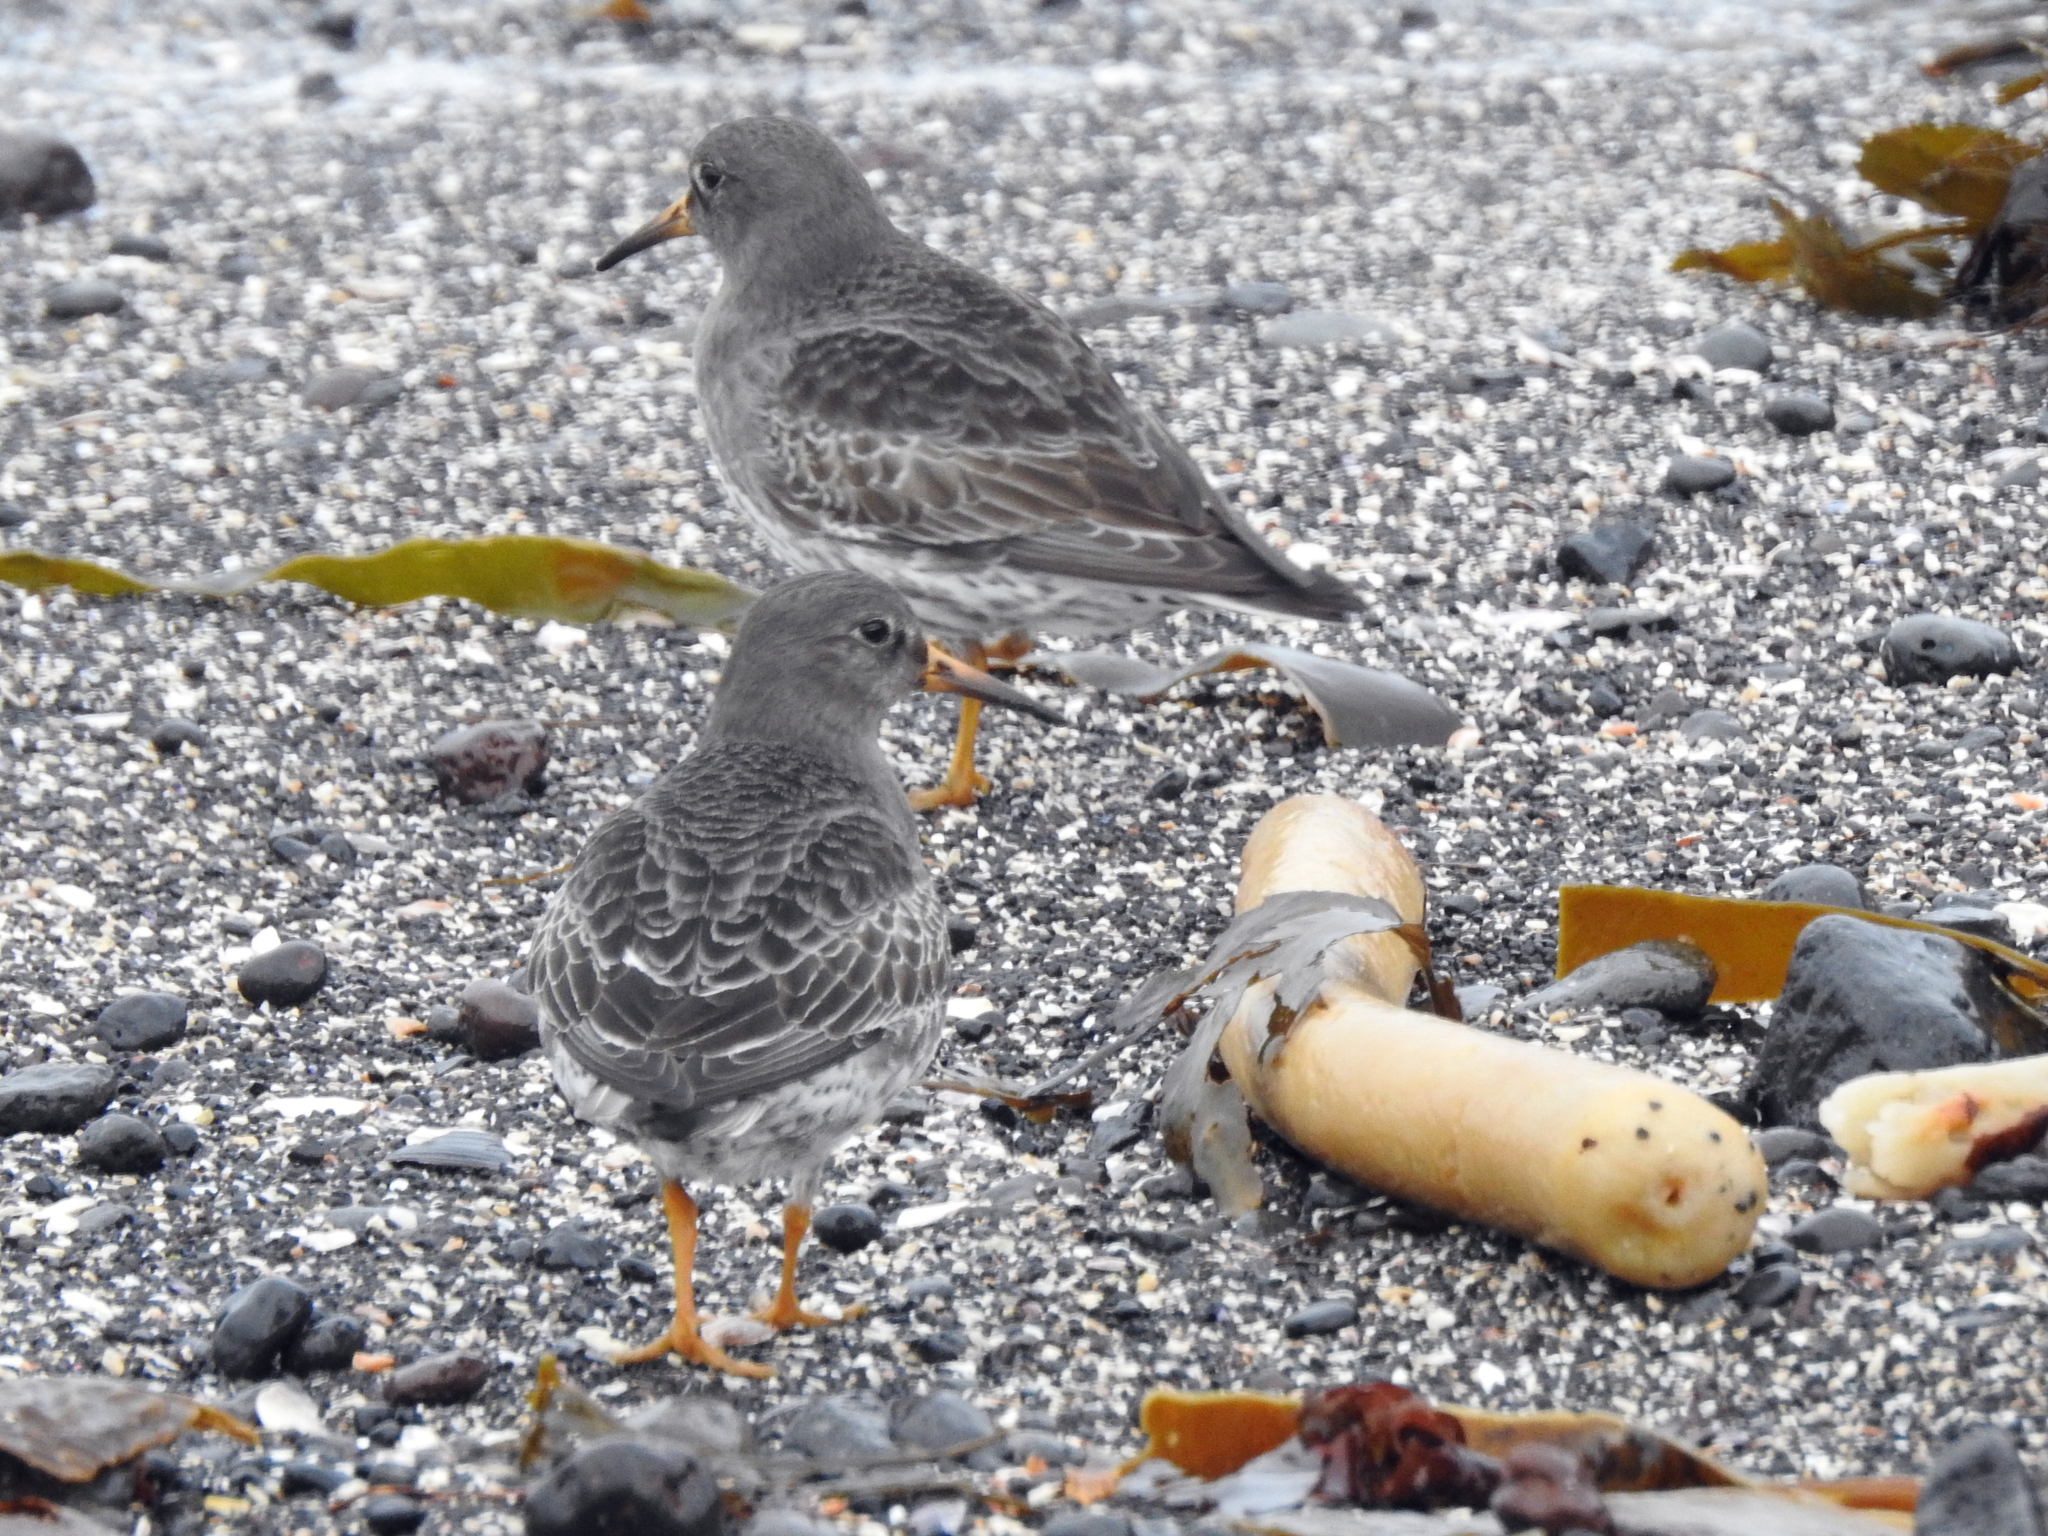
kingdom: Animalia
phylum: Chordata
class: Aves
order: Charadriiformes
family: Scolopacidae
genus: Calidris
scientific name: Calidris maritima
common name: Purple sandpiper
